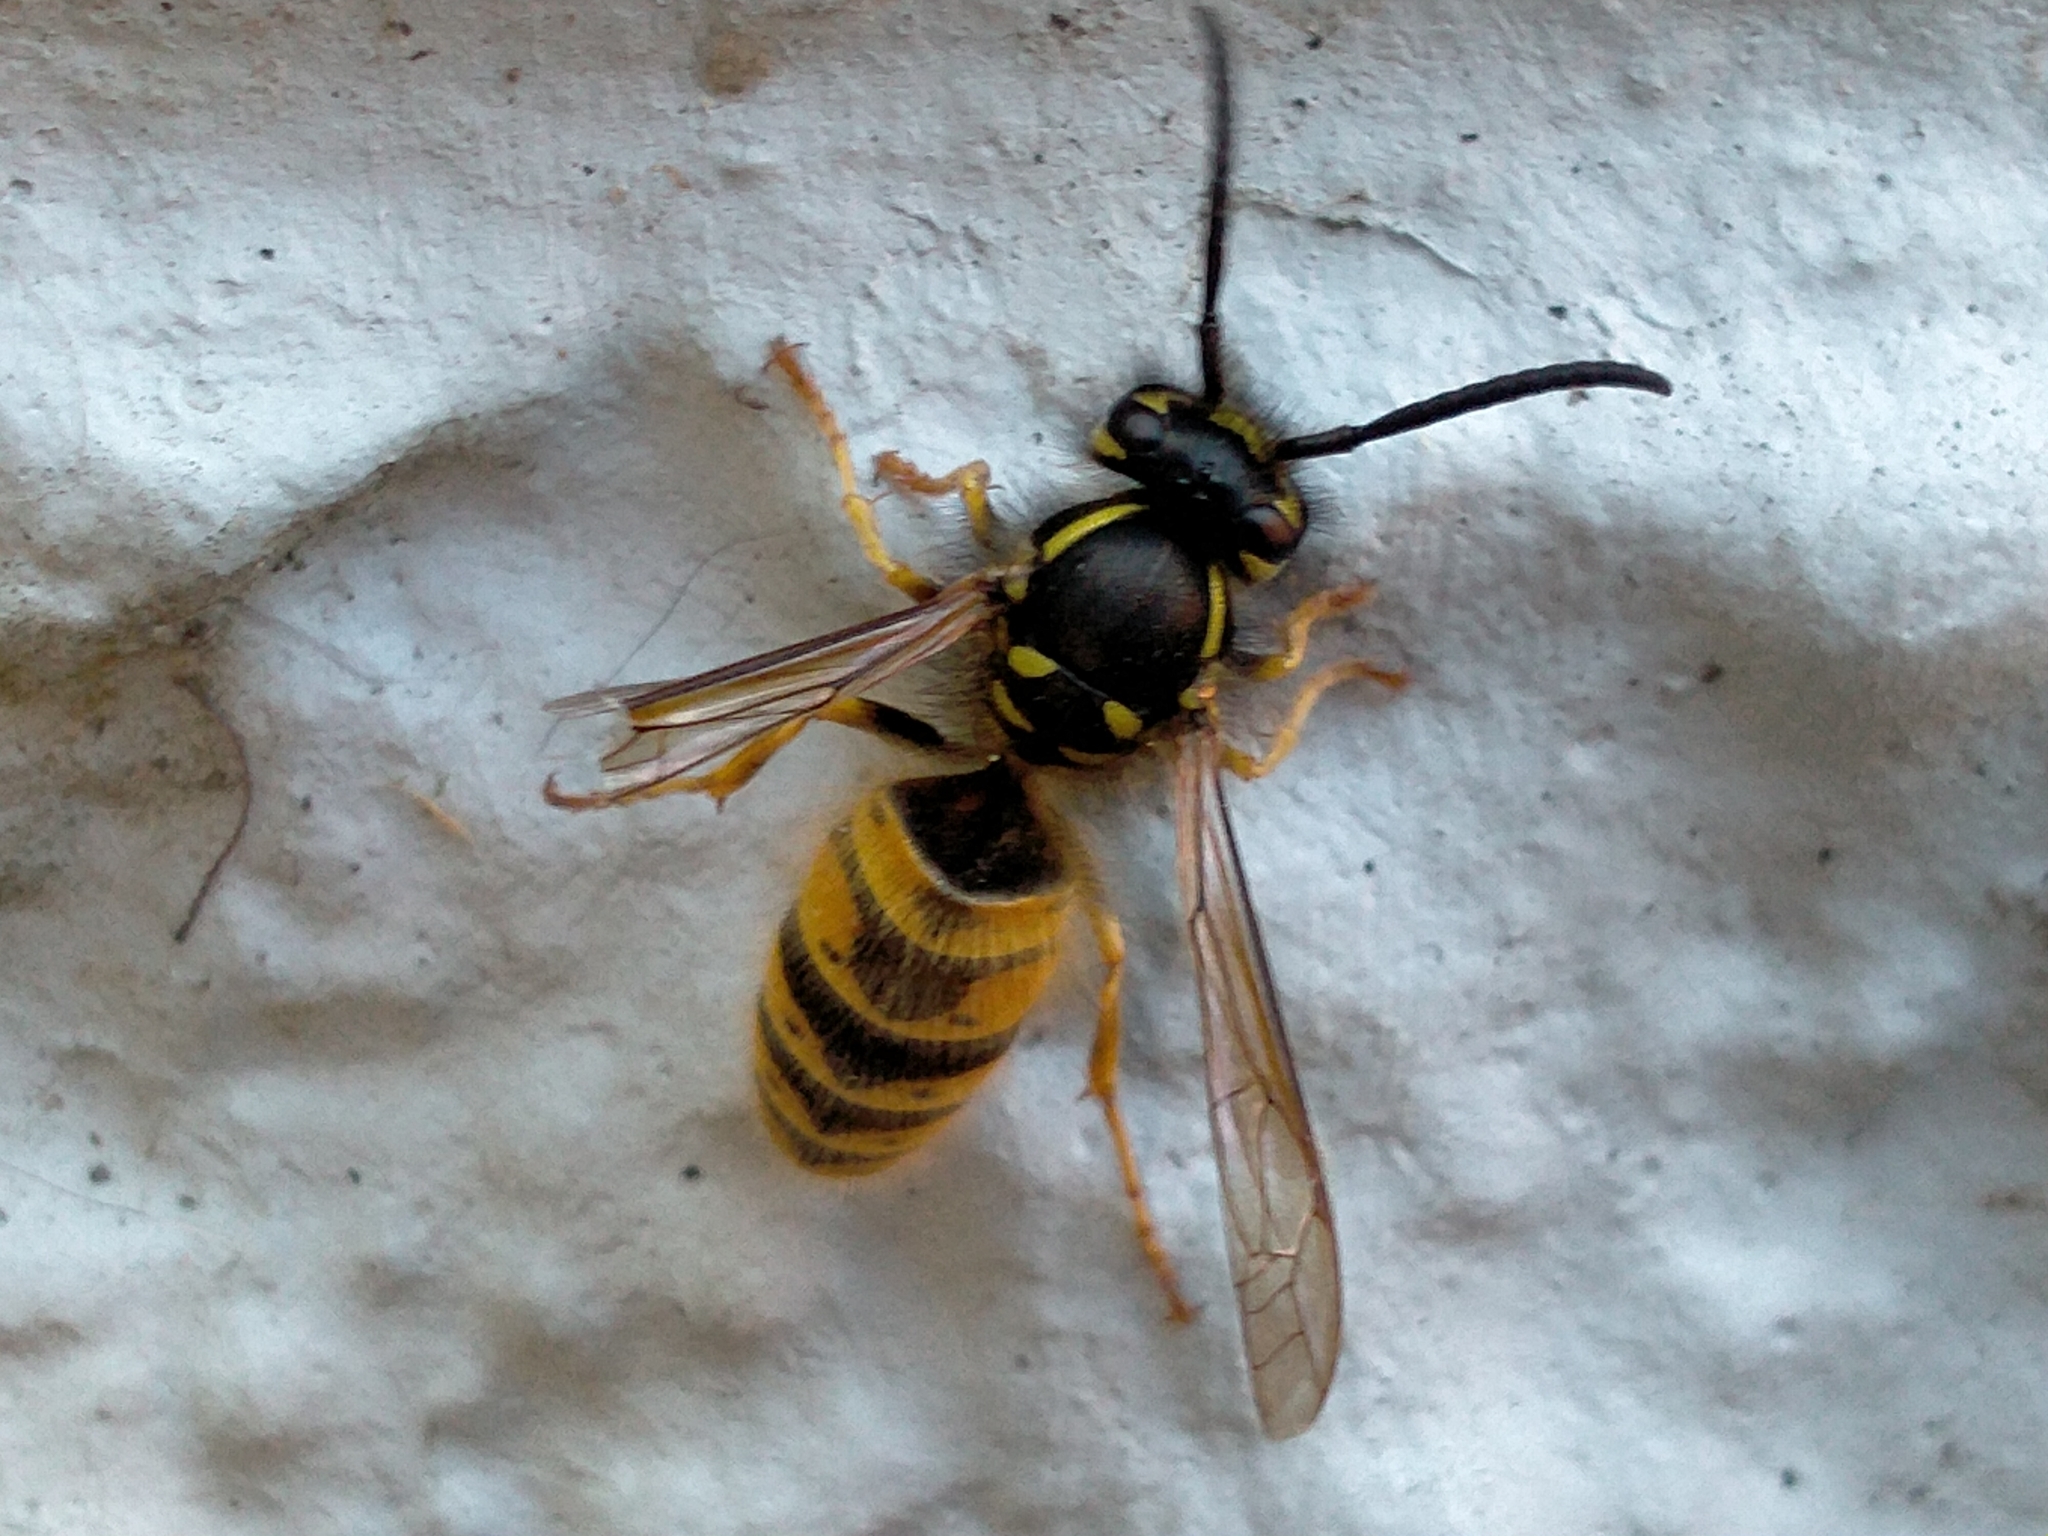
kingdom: Animalia
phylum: Arthropoda
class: Insecta
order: Hymenoptera
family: Vespidae
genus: Vespula
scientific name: Vespula vulgaris
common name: Common wasp
